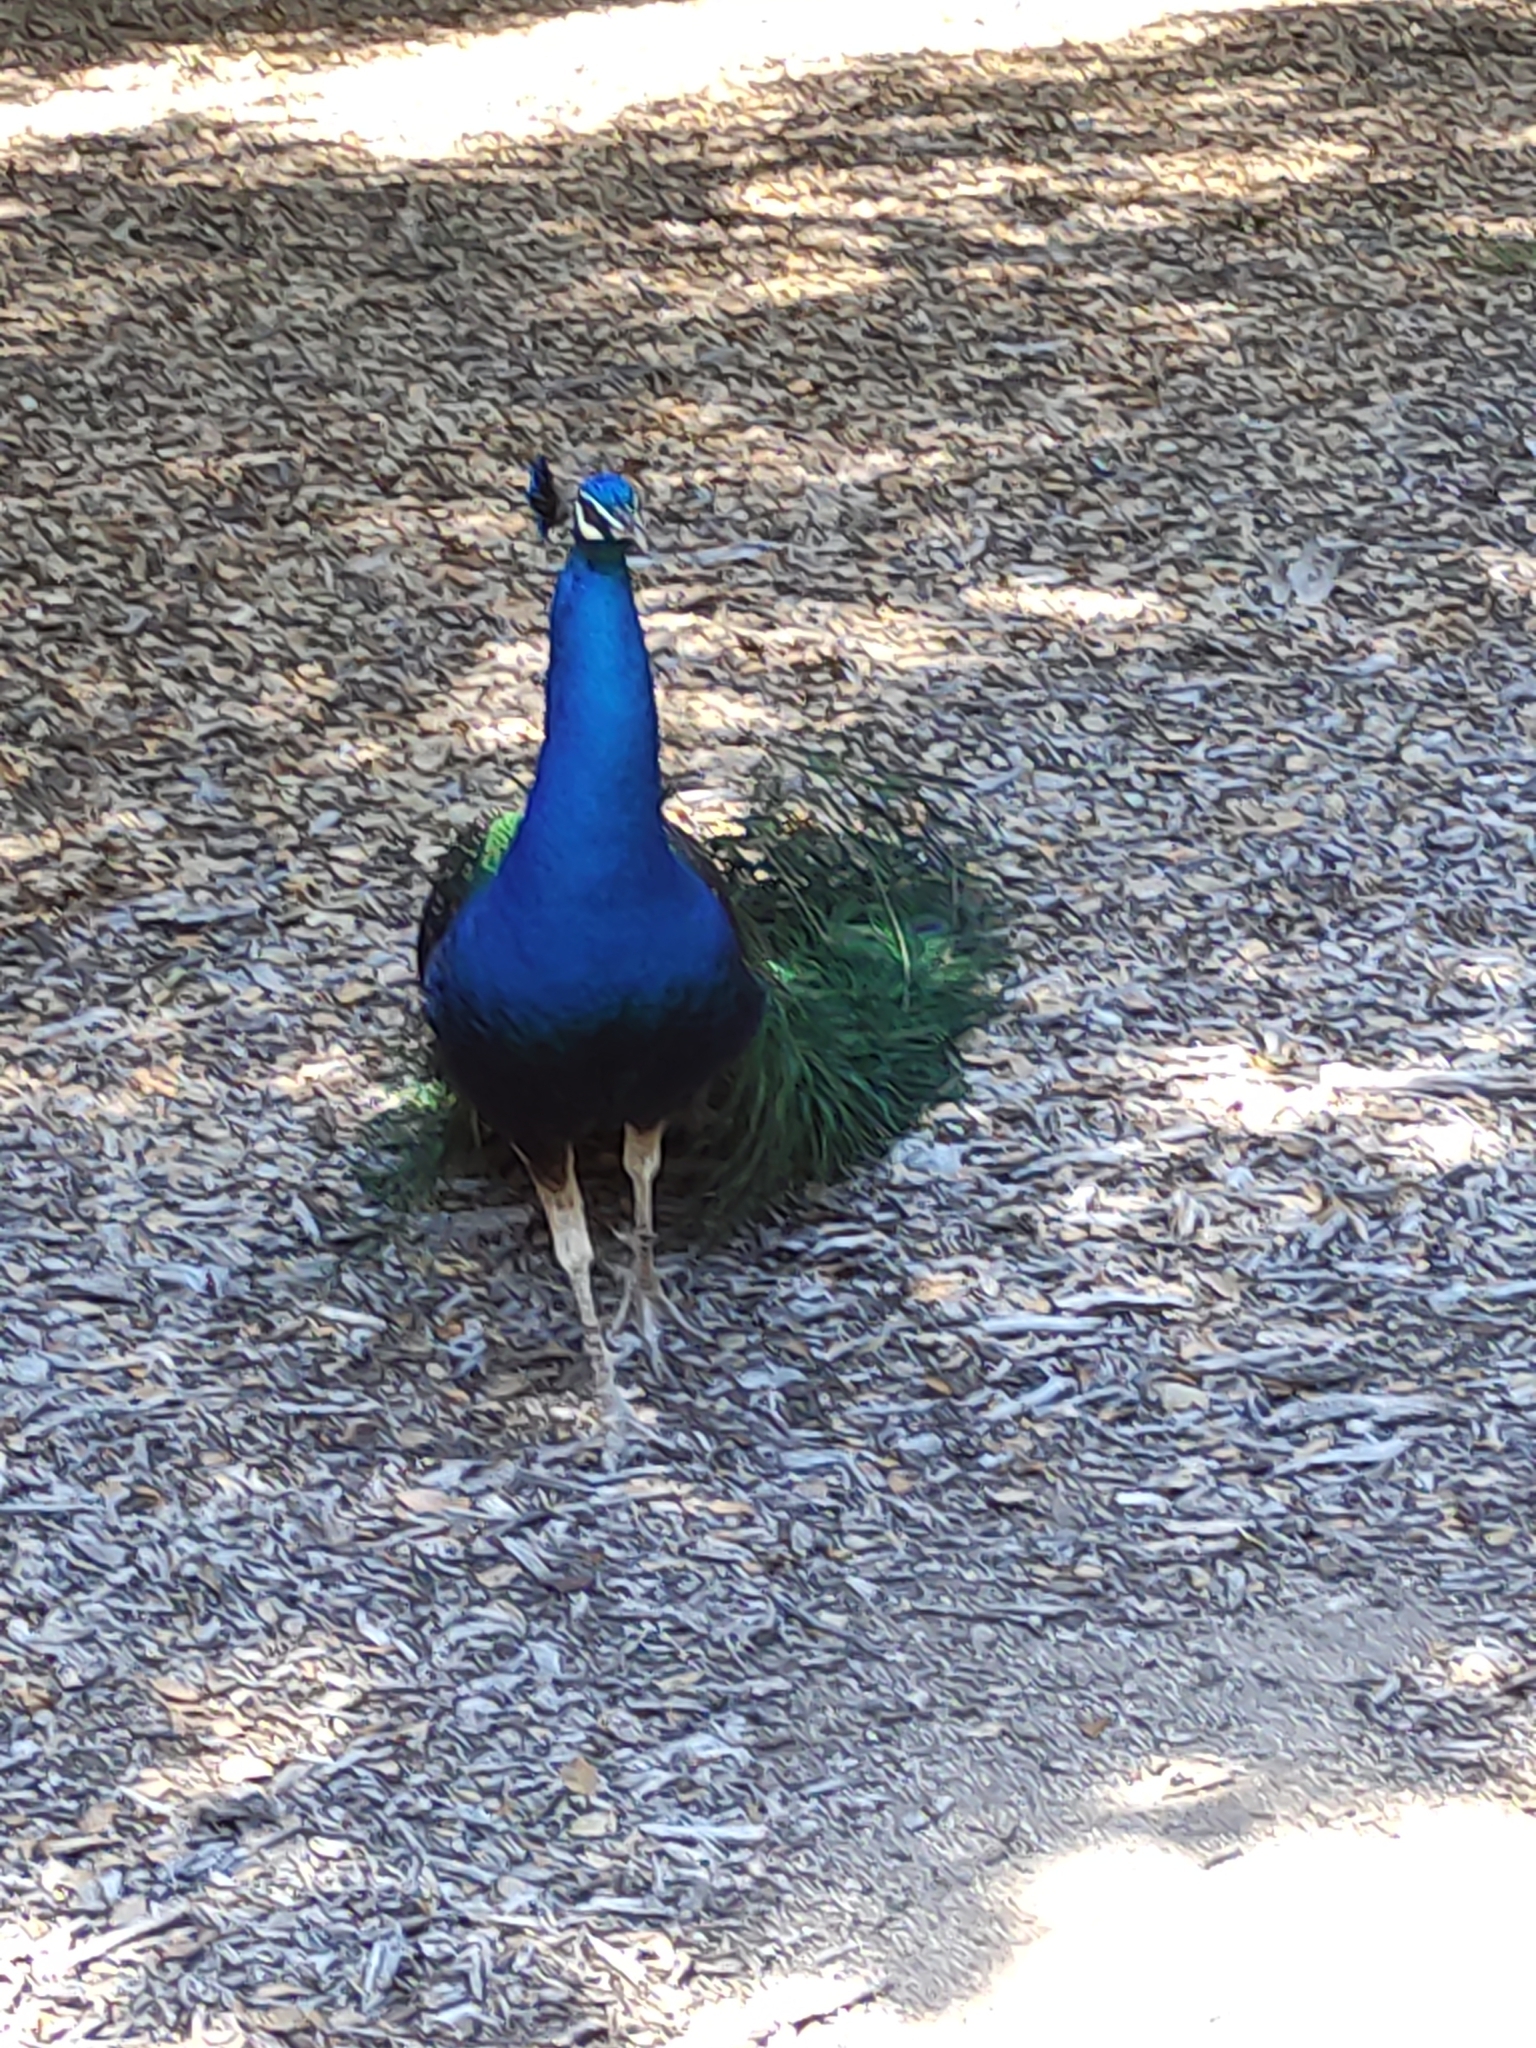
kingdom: Animalia
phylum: Chordata
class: Aves
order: Galliformes
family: Phasianidae
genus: Pavo
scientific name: Pavo cristatus
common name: Indian peafowl
